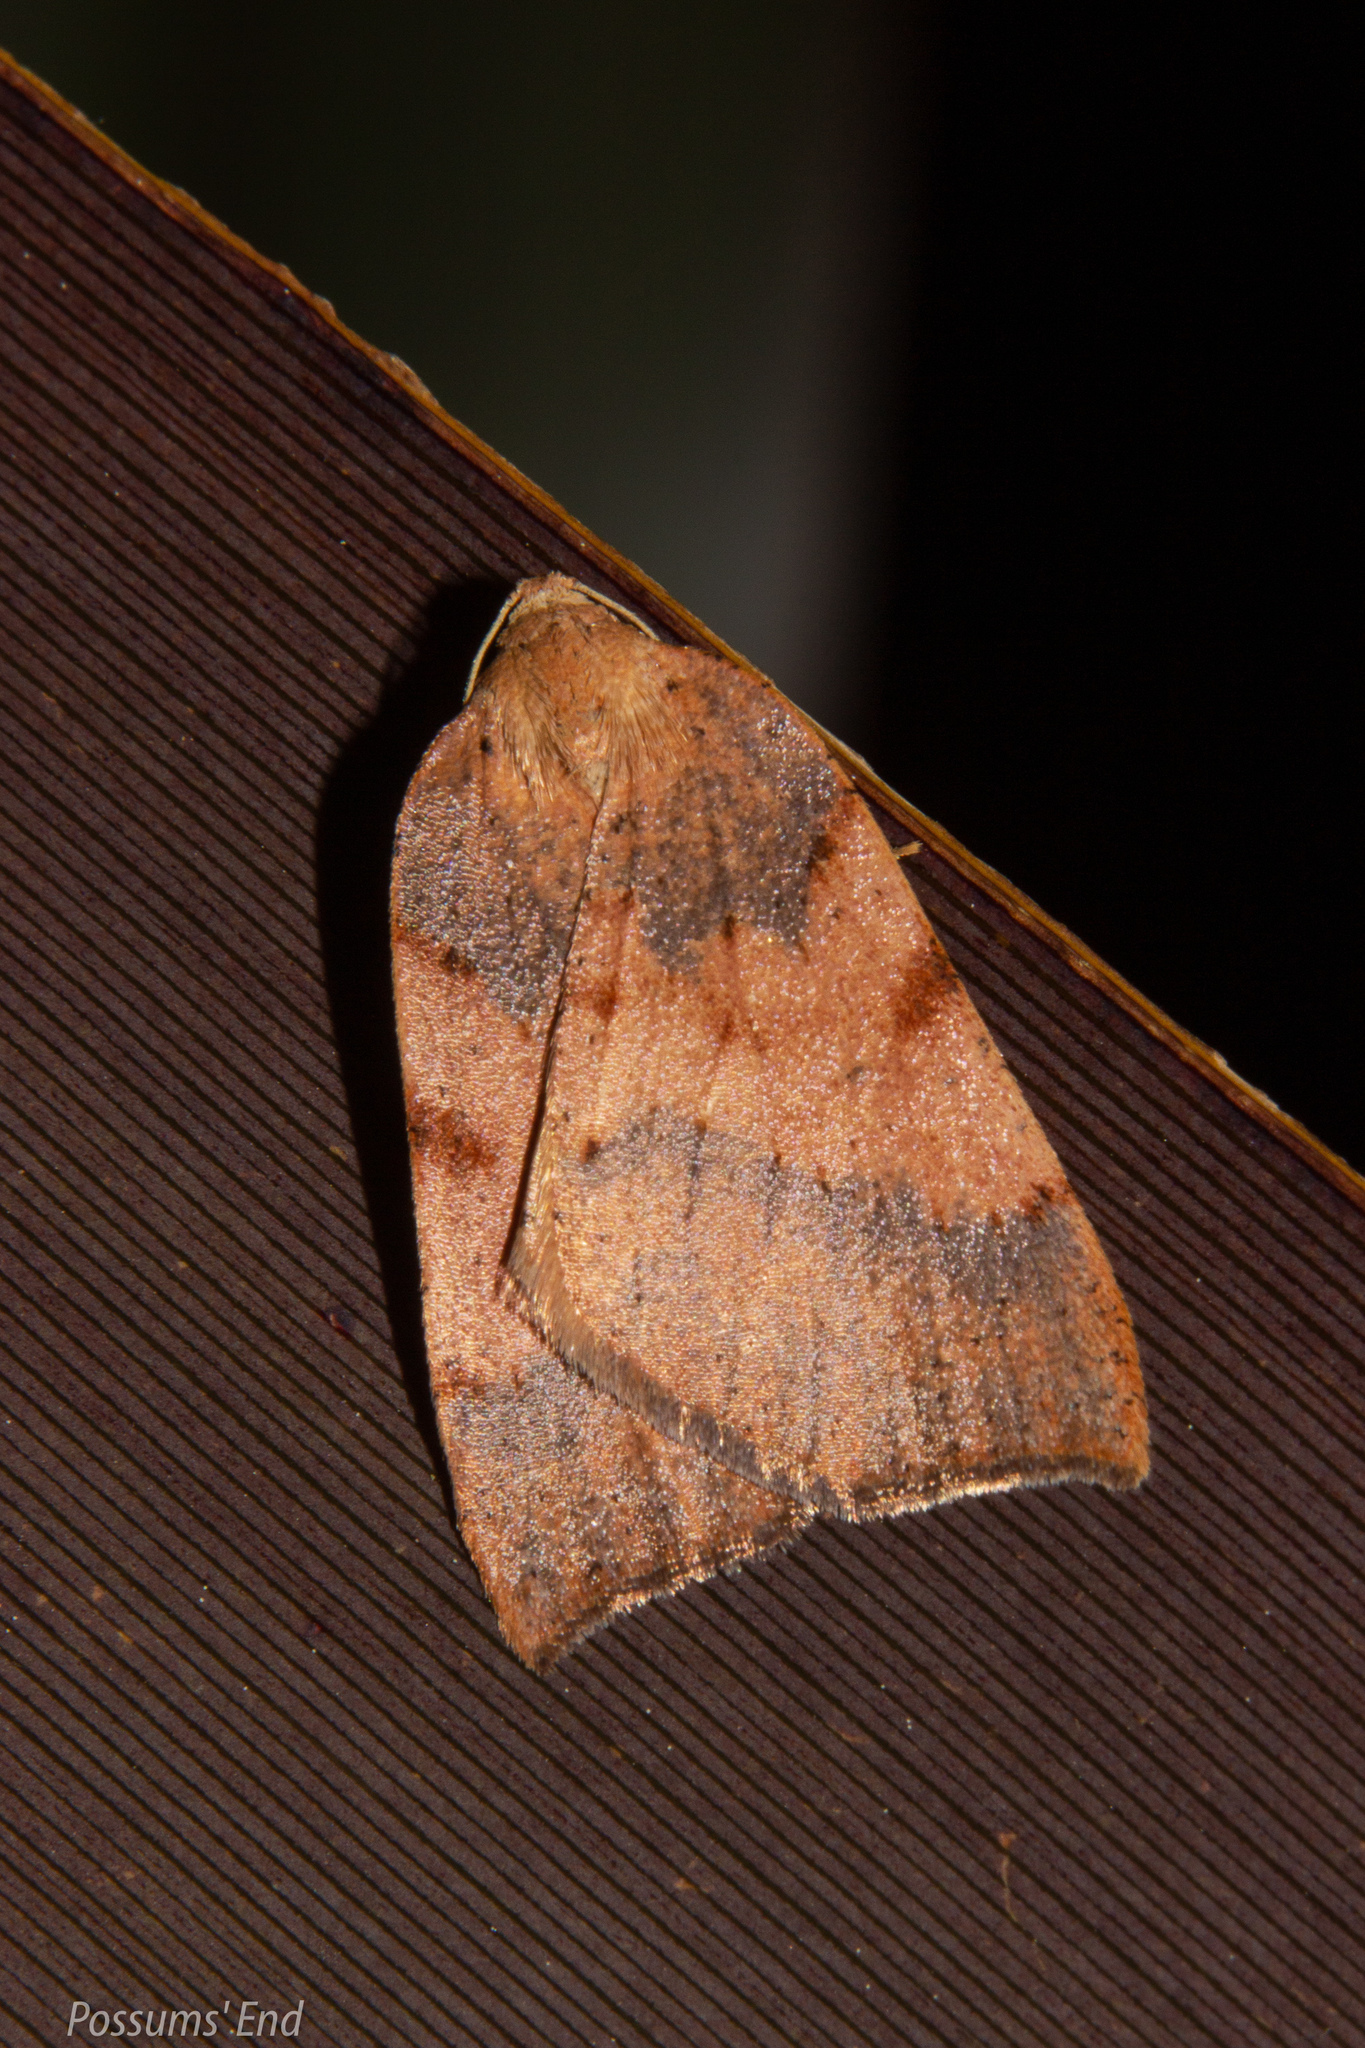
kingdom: Animalia
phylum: Arthropoda
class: Insecta
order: Lepidoptera
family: Geometridae
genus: Sestra
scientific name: Sestra humeraria
